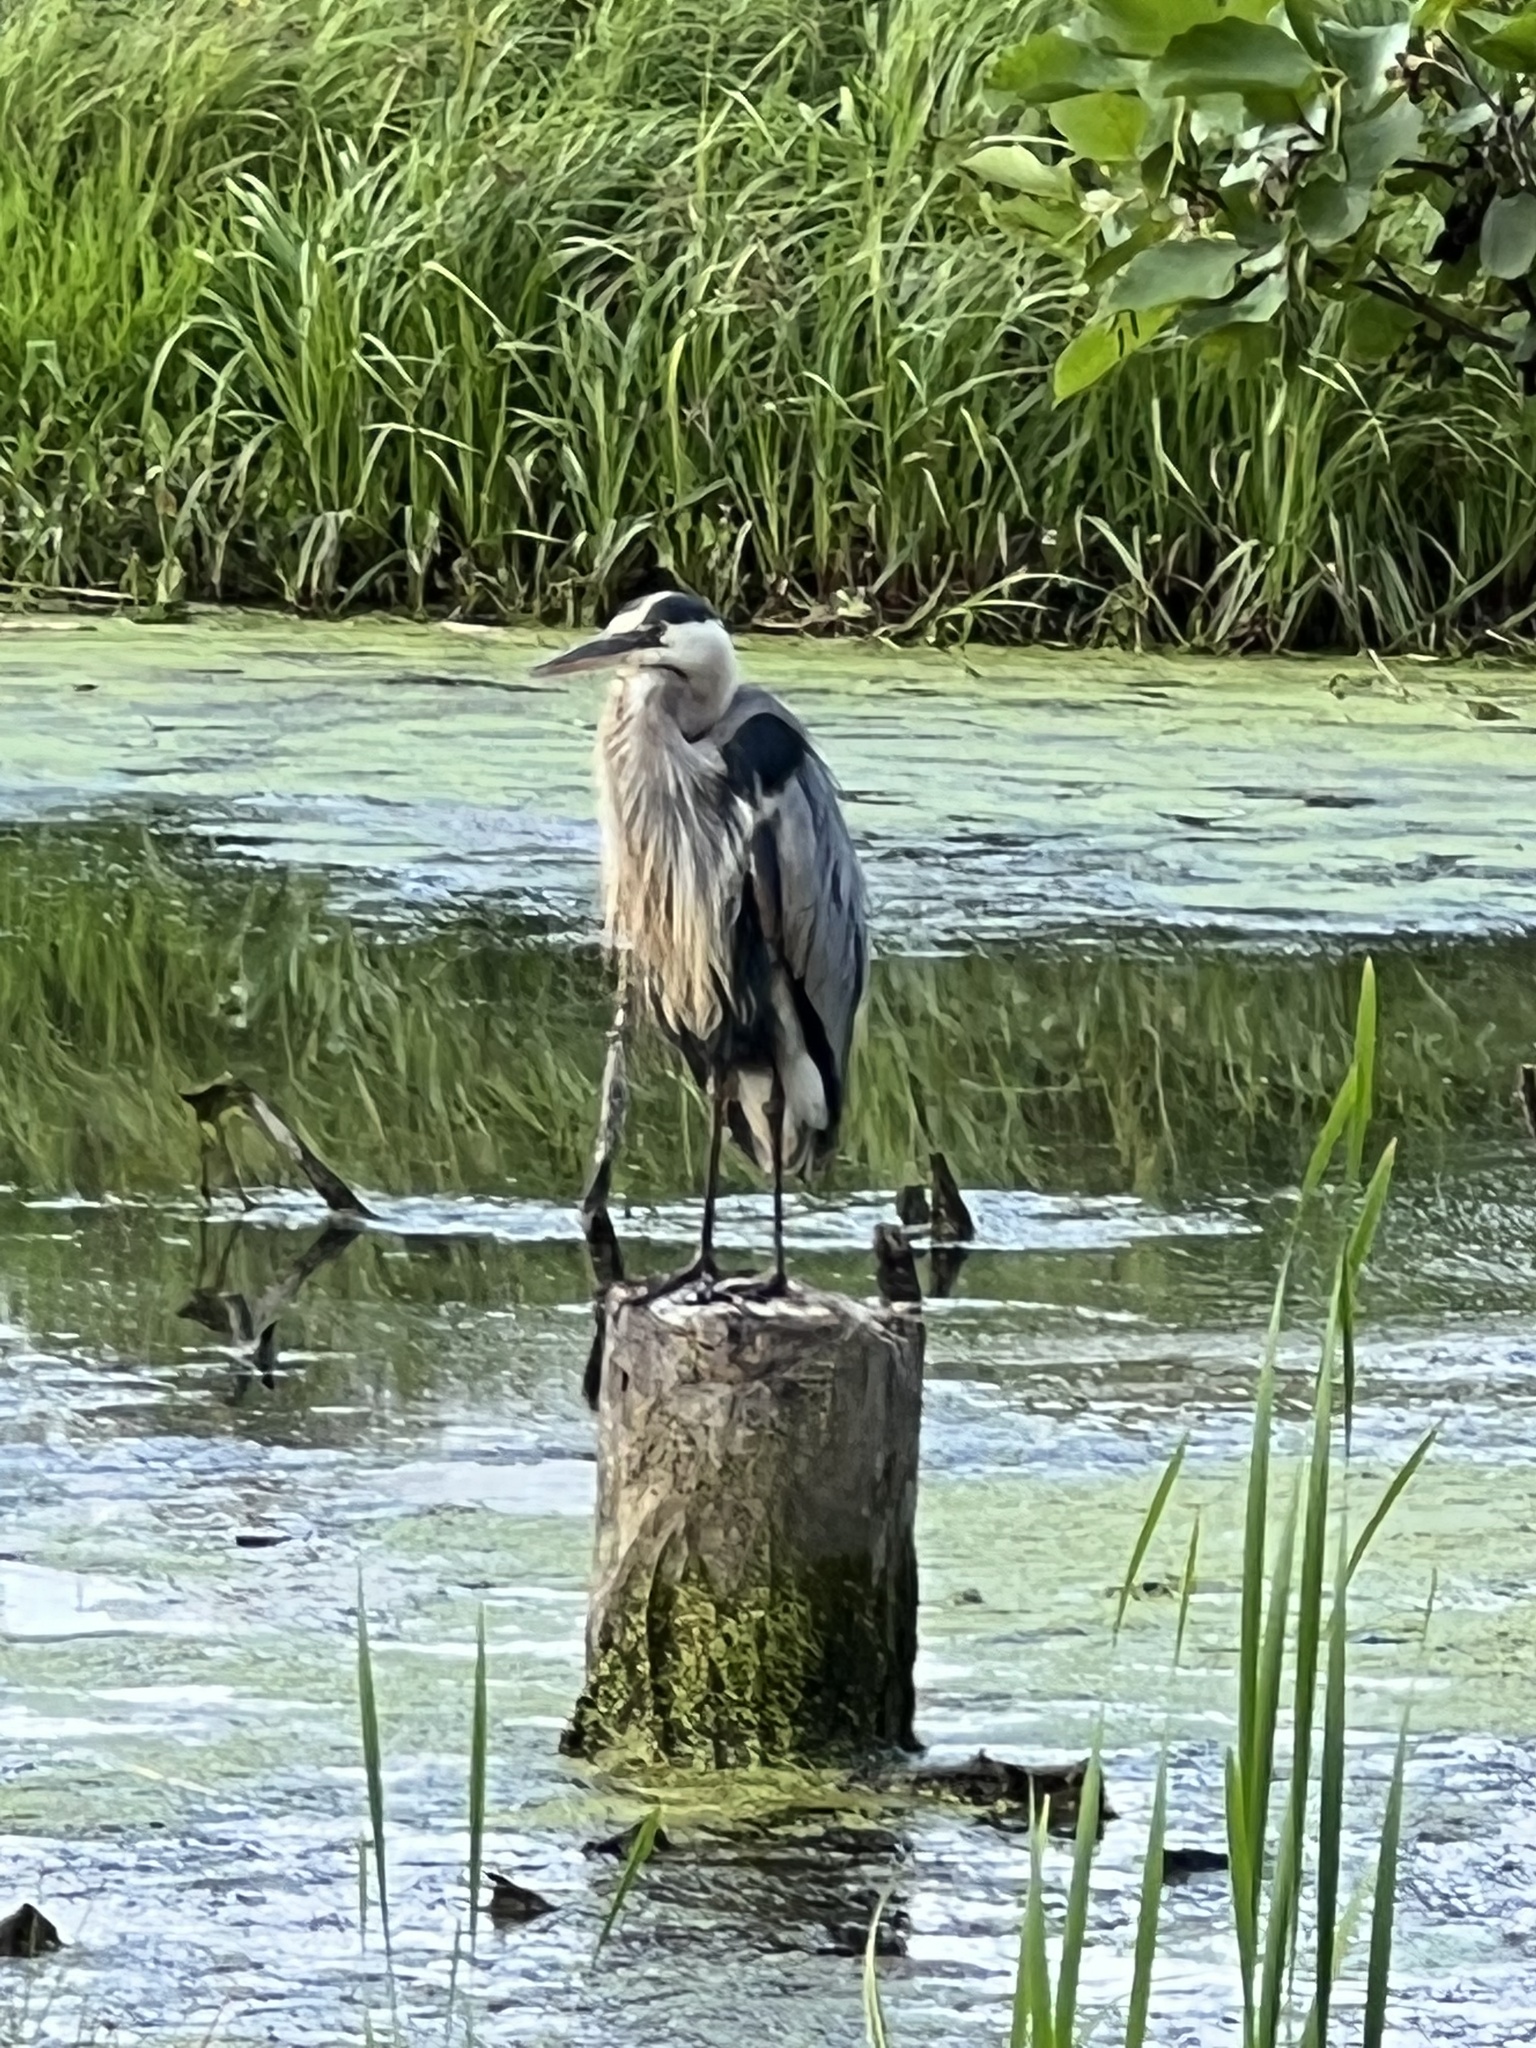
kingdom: Animalia
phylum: Chordata
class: Aves
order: Pelecaniformes
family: Ardeidae
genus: Ardea
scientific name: Ardea herodias
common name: Great blue heron
